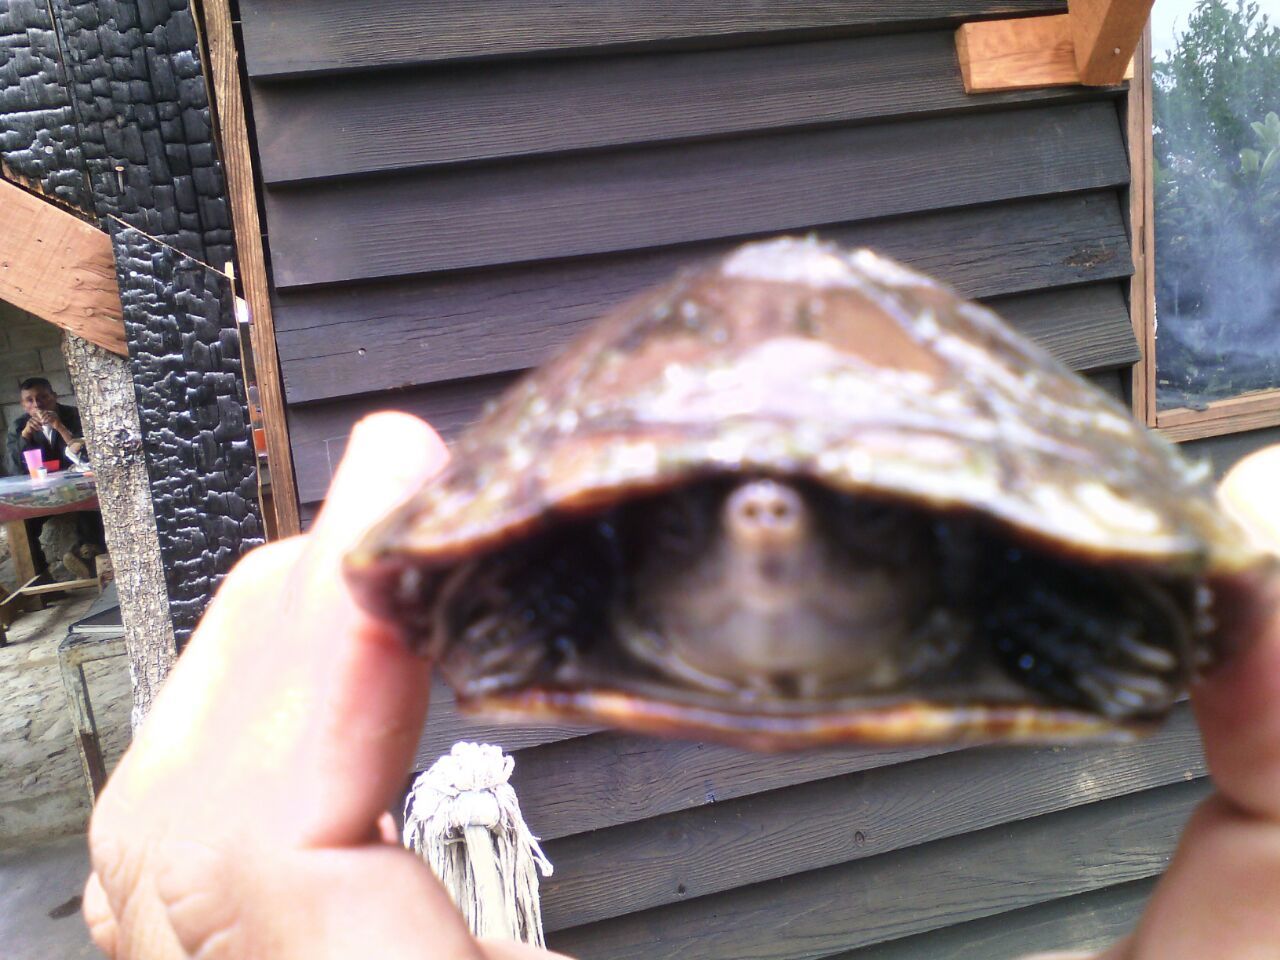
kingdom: Animalia
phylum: Chordata
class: Testudines
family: Kinosternidae
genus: Kinosternon
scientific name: Kinosternon integrum
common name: Mexican mud turtle
